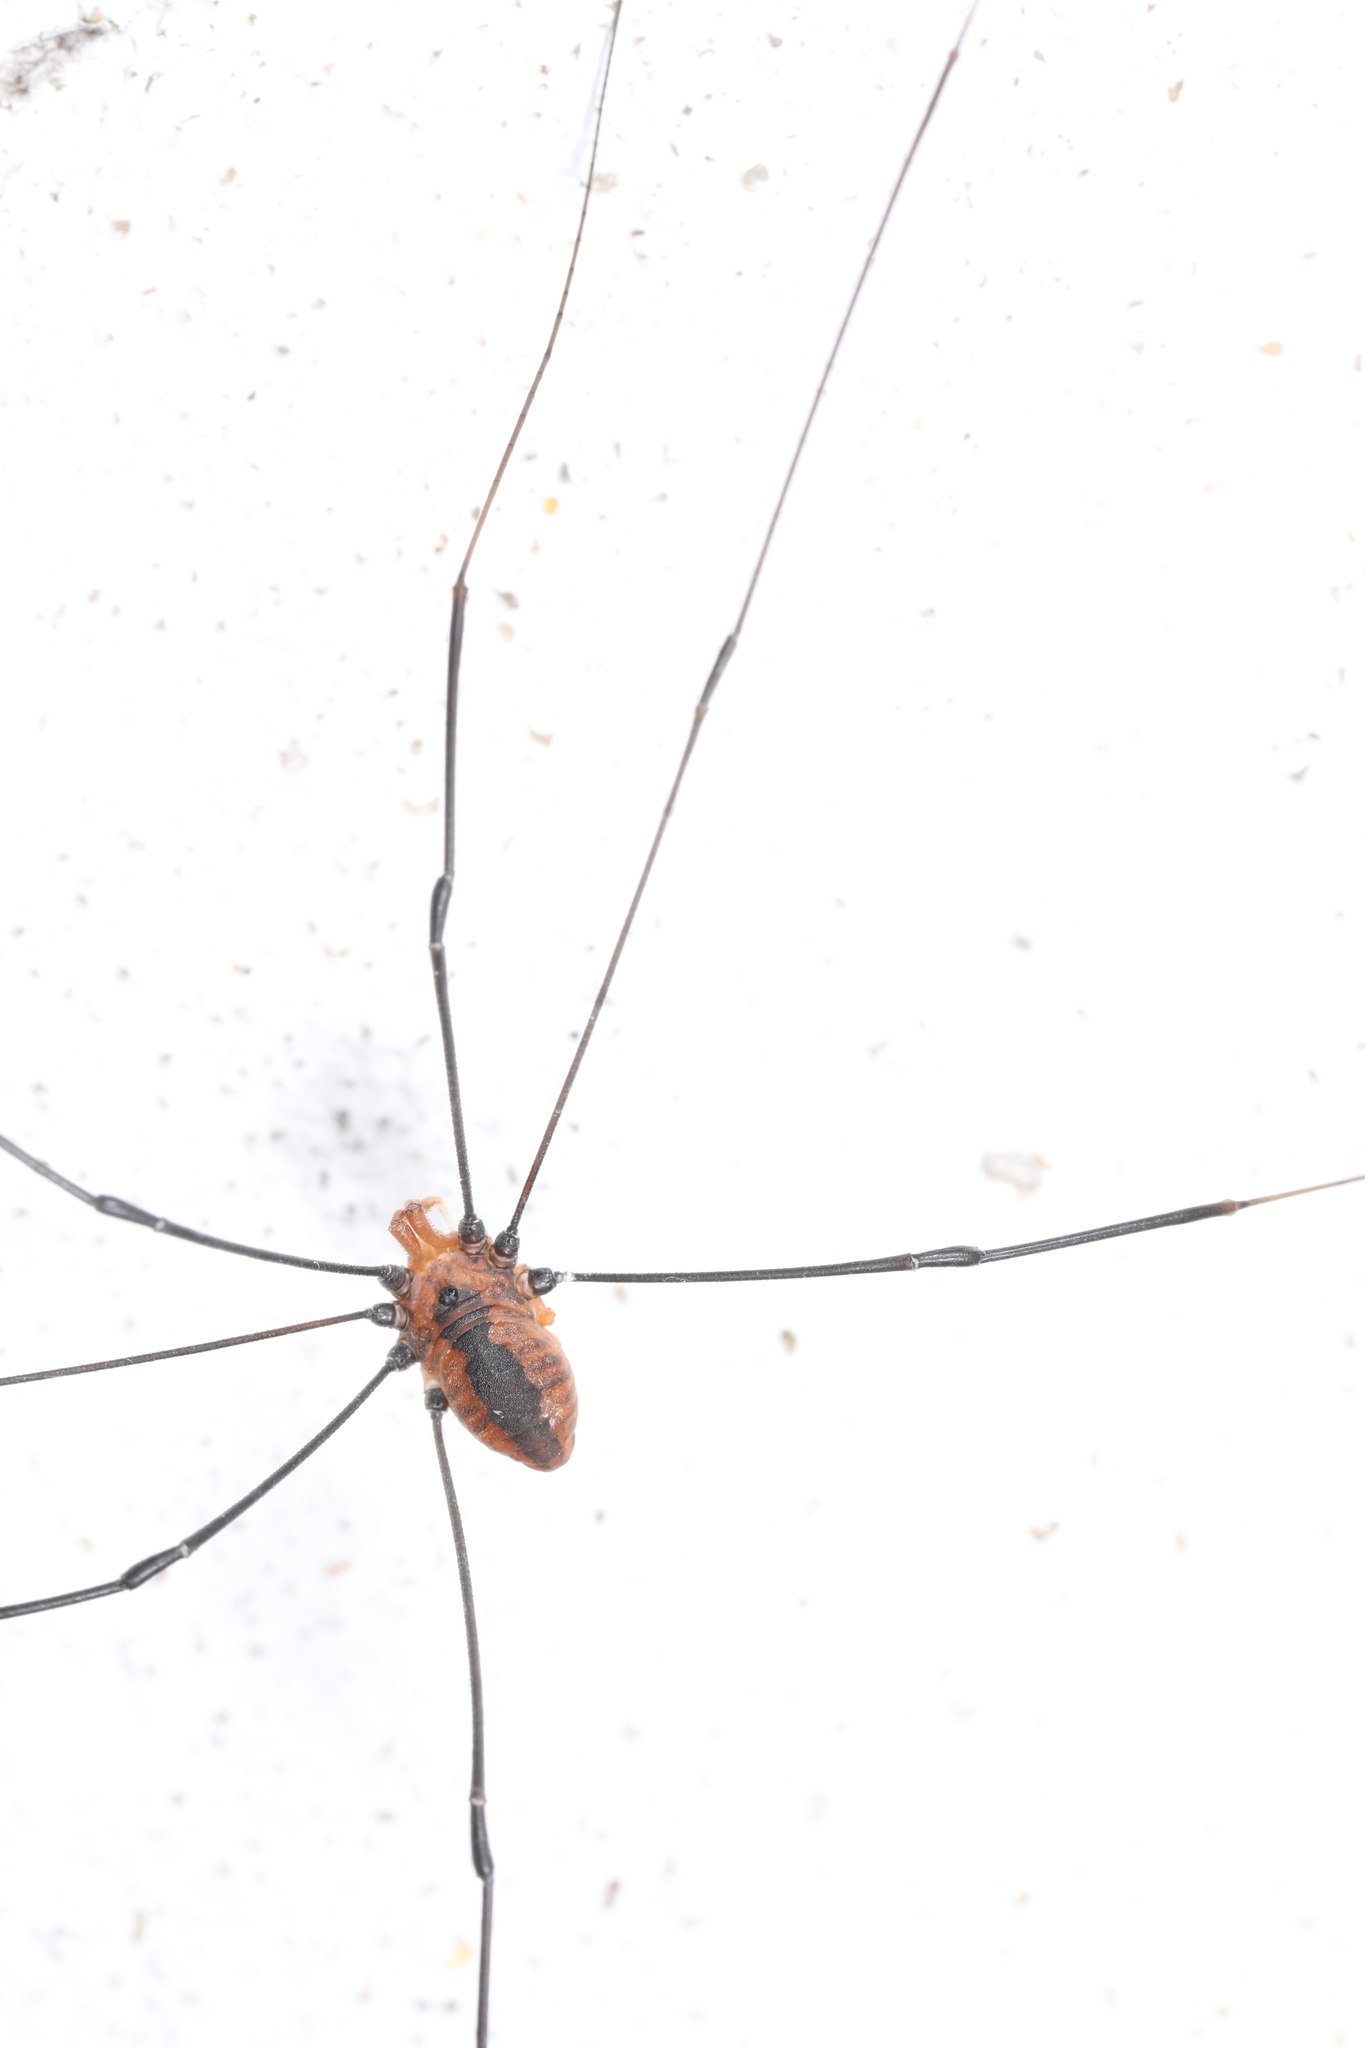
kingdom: Animalia
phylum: Arthropoda
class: Arachnida
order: Opiliones
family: Sclerosomatidae
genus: Leiobunum
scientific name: Leiobunum vittatum
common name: Eastern harvestman
